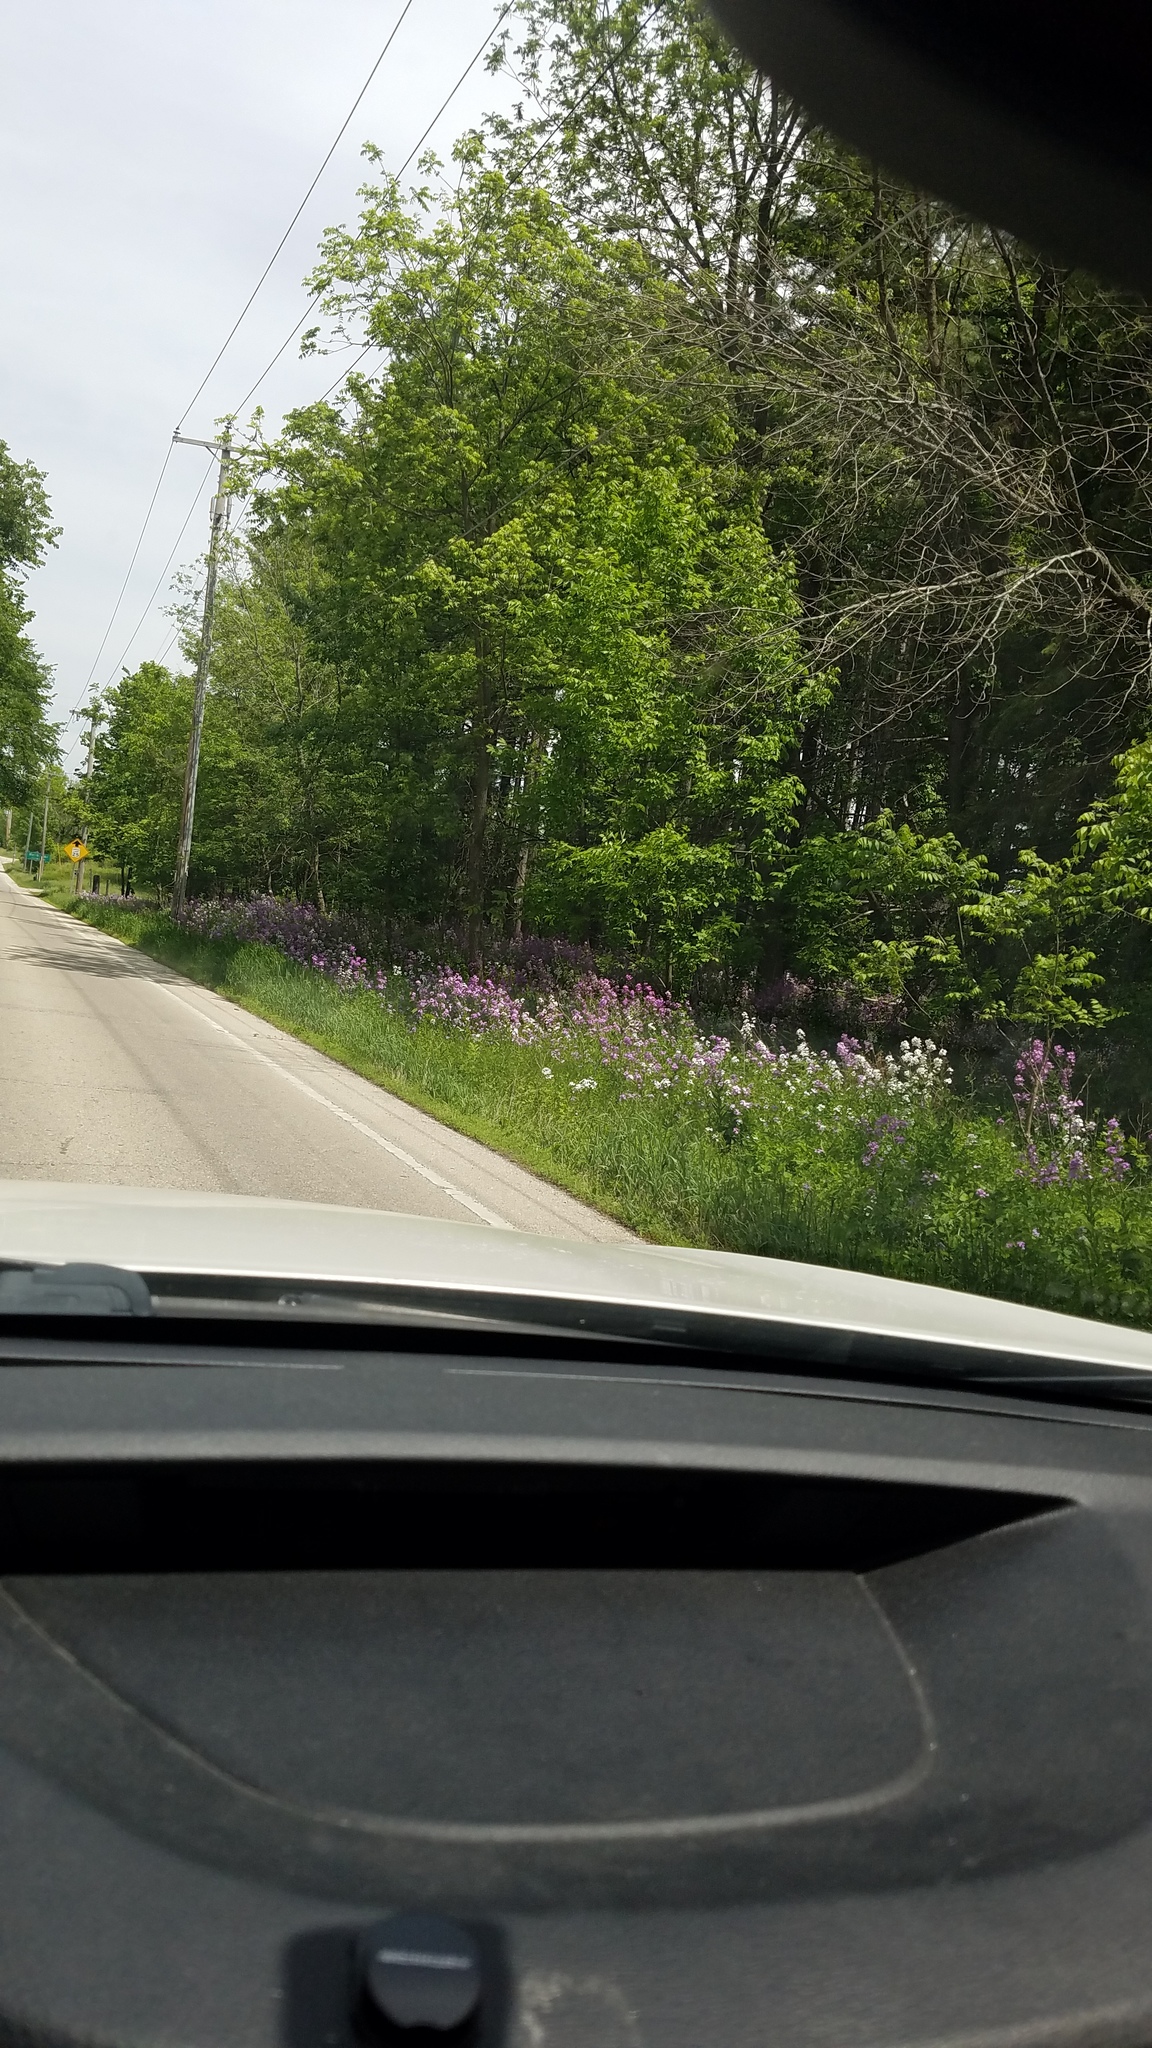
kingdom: Plantae
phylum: Tracheophyta
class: Magnoliopsida
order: Brassicales
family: Brassicaceae
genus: Hesperis
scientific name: Hesperis matronalis
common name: Dame's-violet
